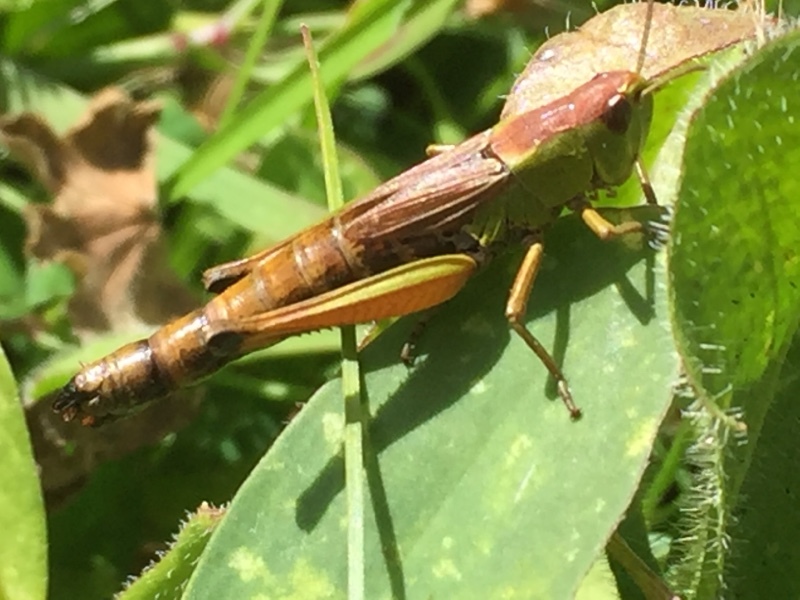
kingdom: Animalia
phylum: Arthropoda
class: Insecta
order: Orthoptera
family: Acrididae
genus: Pseudochorthippus
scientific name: Pseudochorthippus parallelus
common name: Meadow grasshopper
